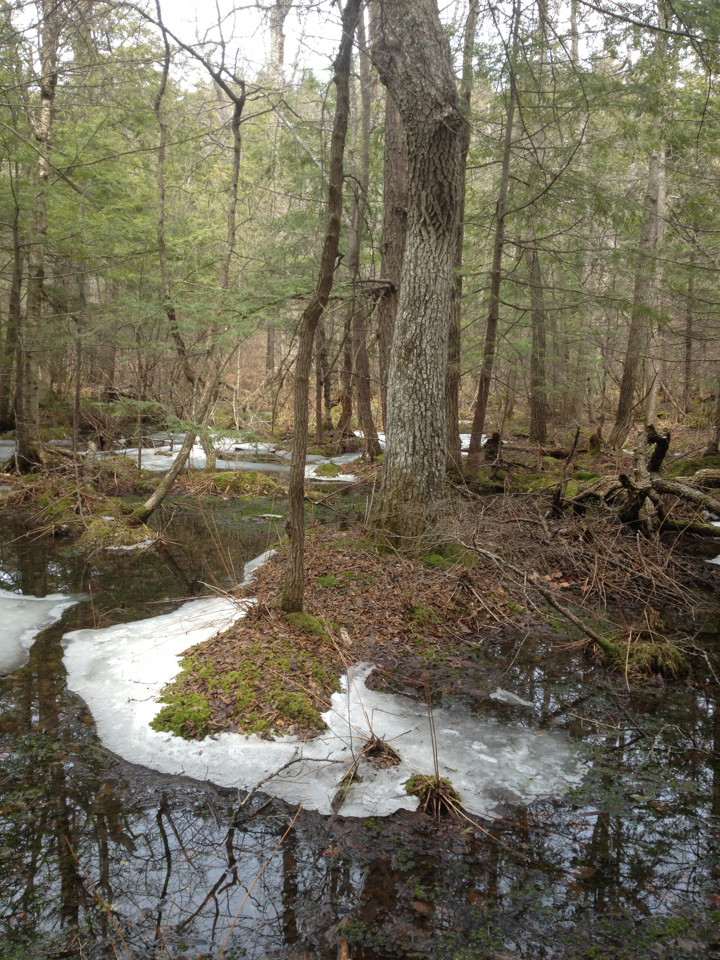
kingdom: Plantae
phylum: Tracheophyta
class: Magnoliopsida
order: Cornales
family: Nyssaceae
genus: Nyssa
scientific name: Nyssa sylvatica
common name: Black tupelo
